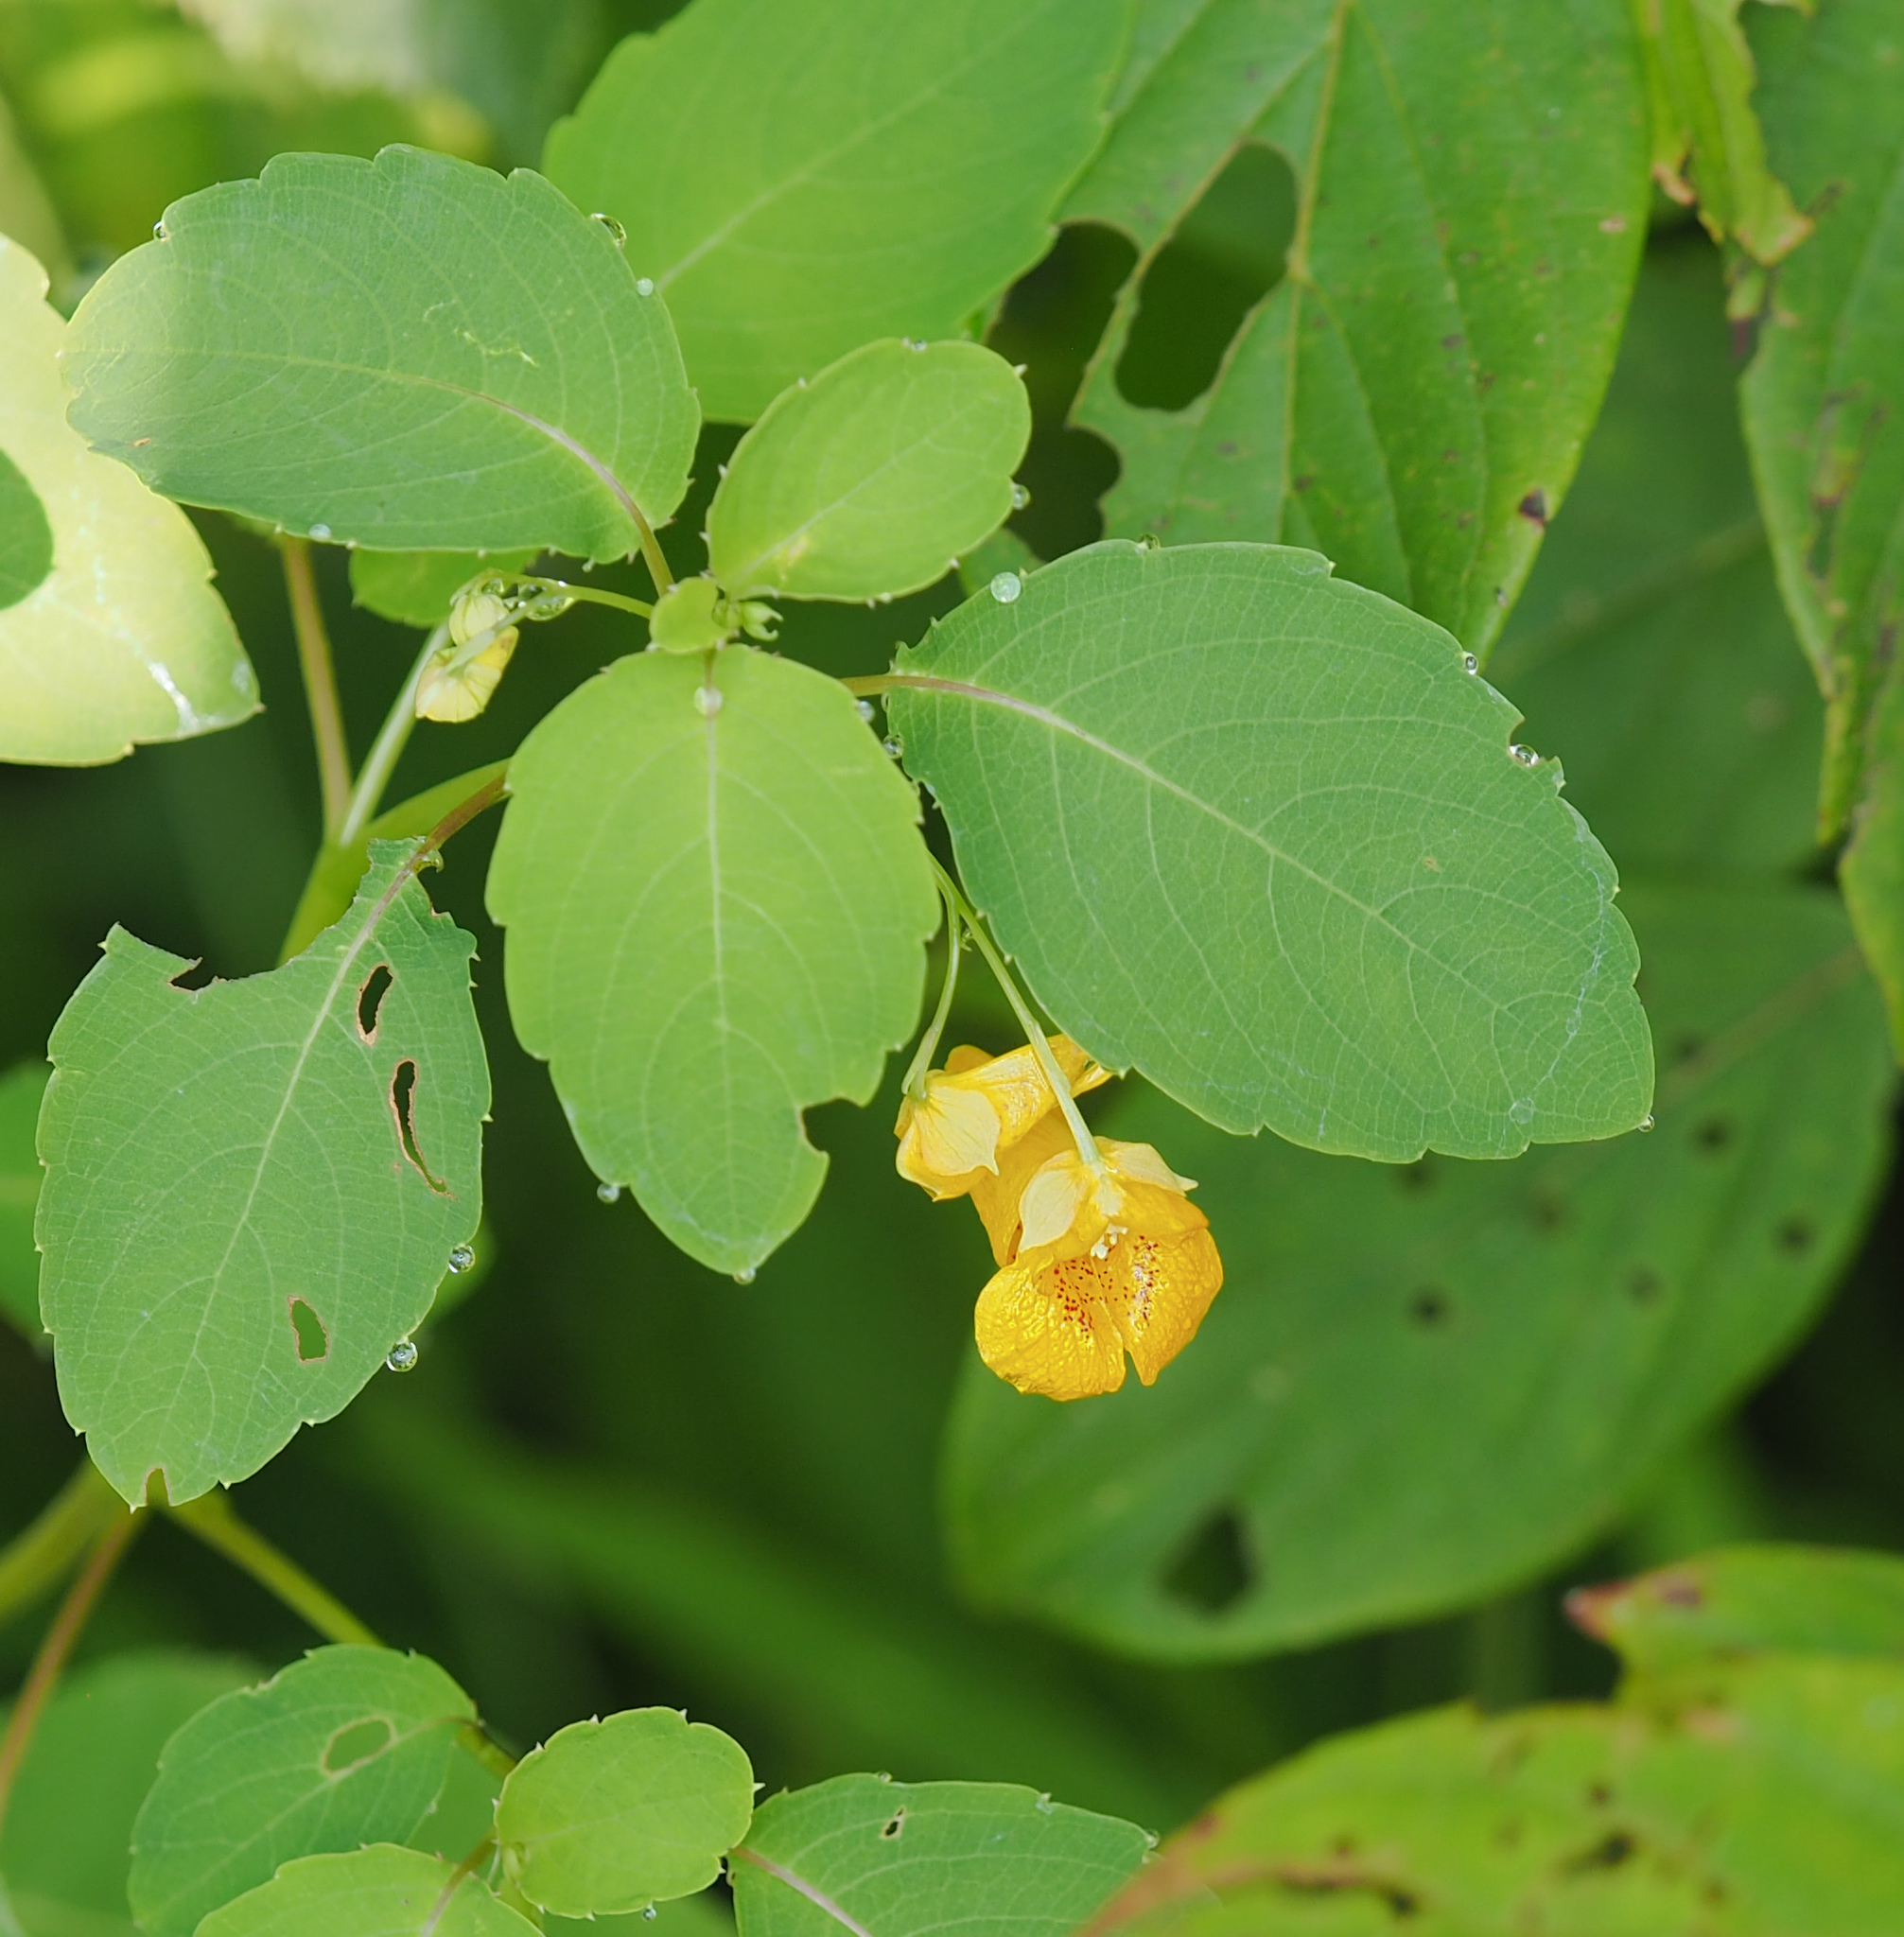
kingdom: Plantae
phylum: Tracheophyta
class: Magnoliopsida
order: Ericales
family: Balsaminaceae
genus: Impatiens
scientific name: Impatiens capensis
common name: Orange balsam
